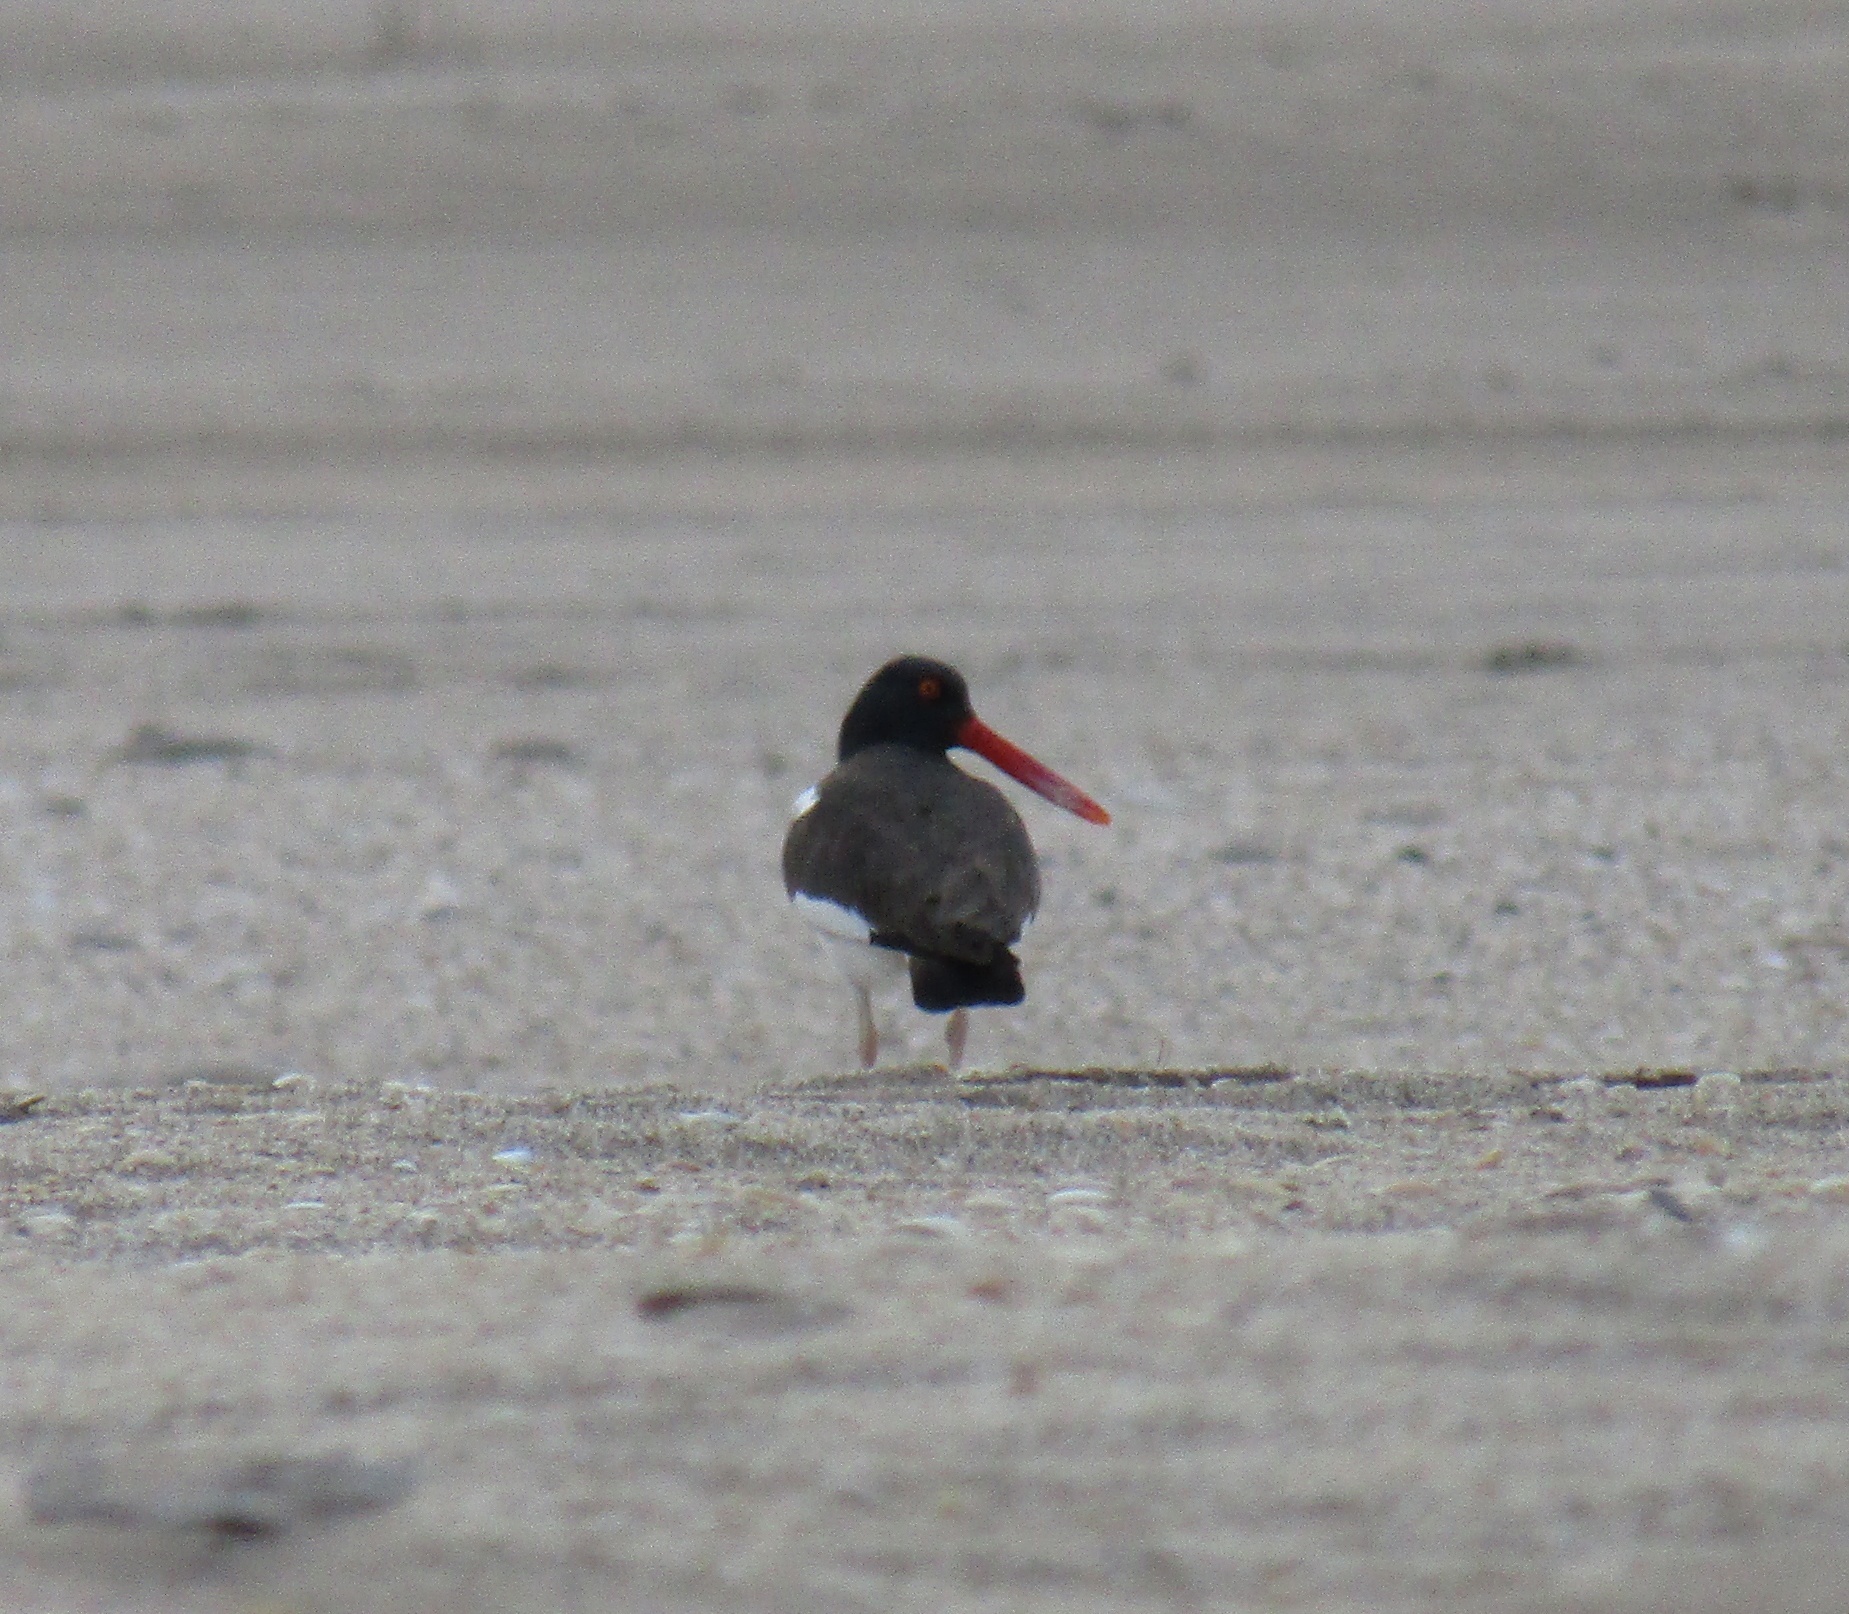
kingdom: Animalia
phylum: Chordata
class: Aves
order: Charadriiformes
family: Haematopodidae
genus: Haematopus
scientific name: Haematopus palliatus
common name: American oystercatcher
